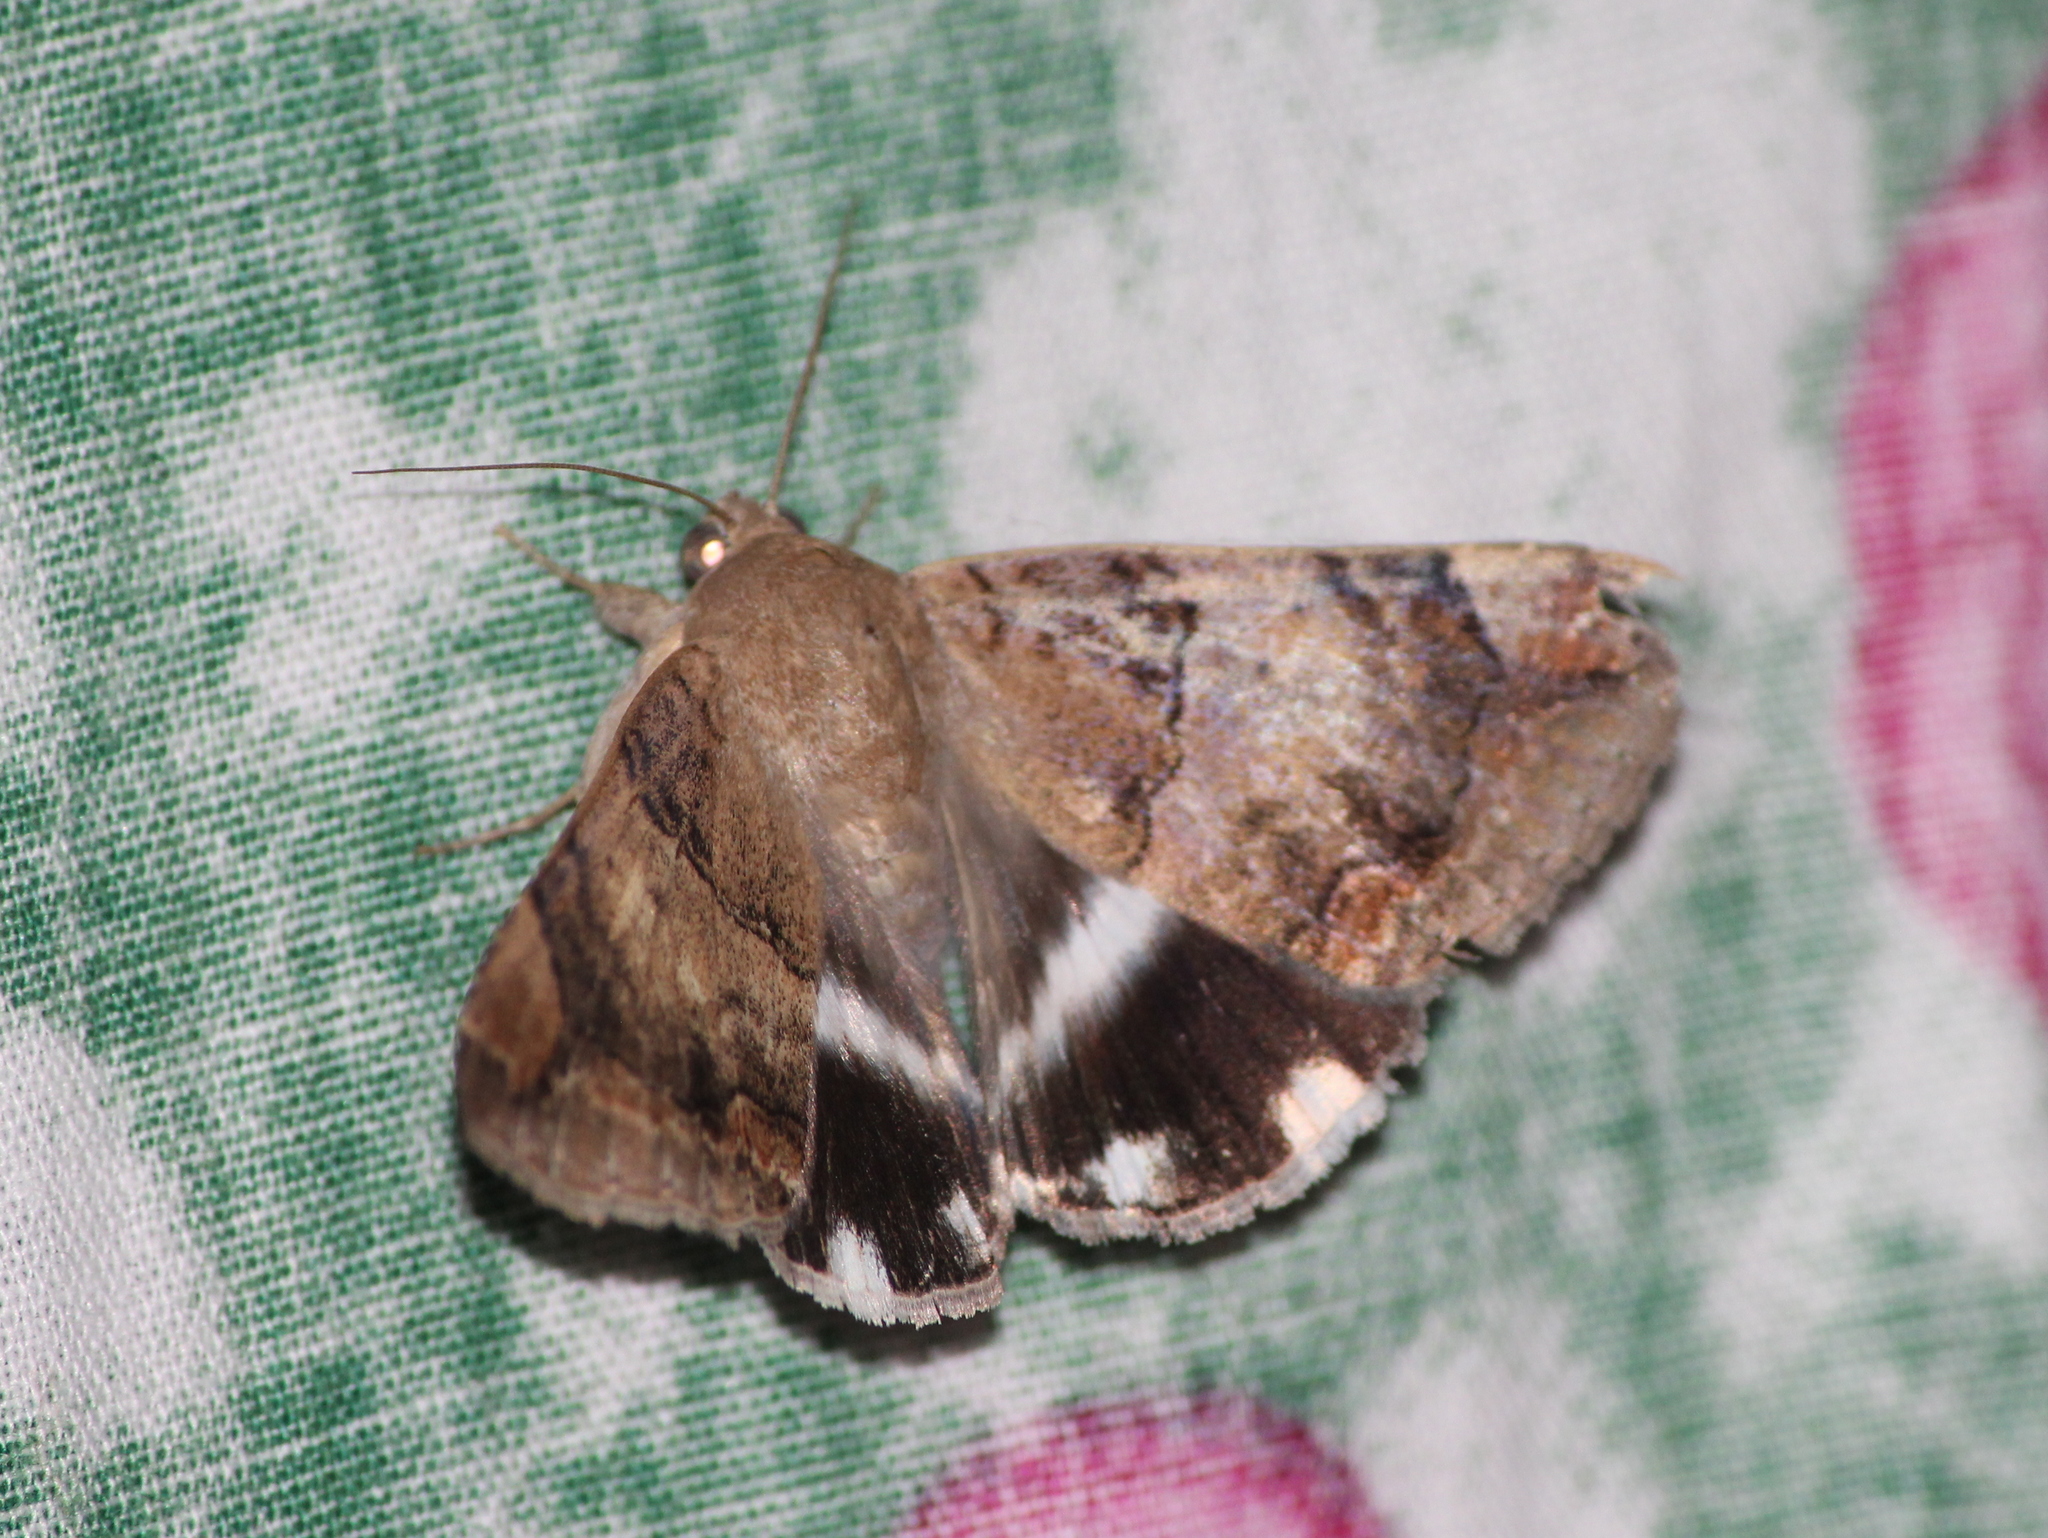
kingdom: Animalia
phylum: Arthropoda
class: Insecta
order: Lepidoptera
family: Erebidae
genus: Achaea
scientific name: Achaea janata
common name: Croton caterpillar
